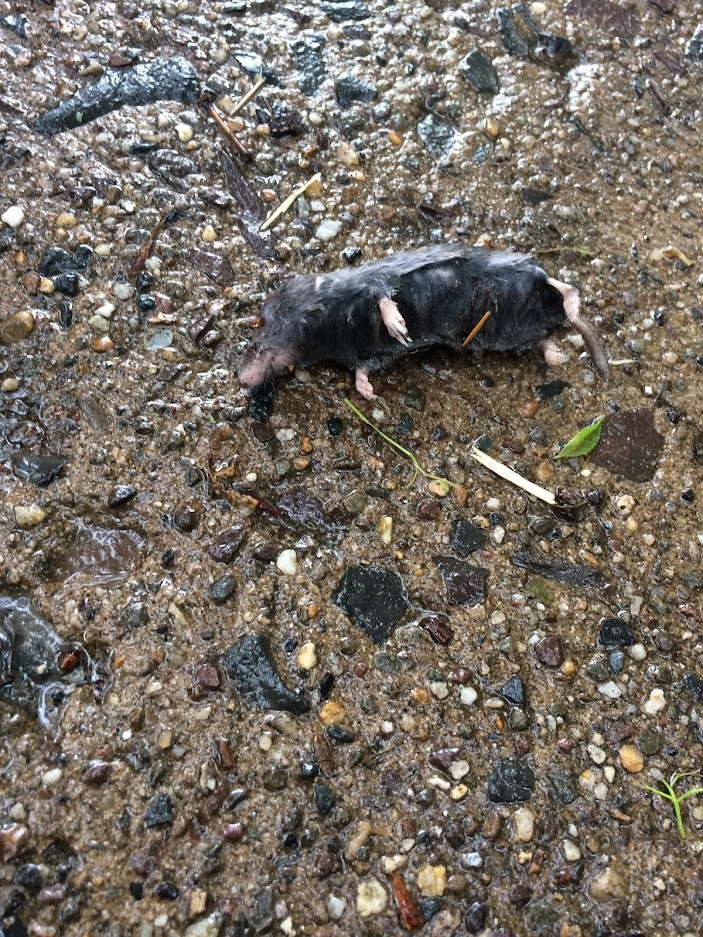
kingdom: Animalia
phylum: Chordata
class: Mammalia
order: Soricomorpha
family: Soricidae
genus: Blarina
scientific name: Blarina brevicauda
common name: Northern short-tailed shrew
